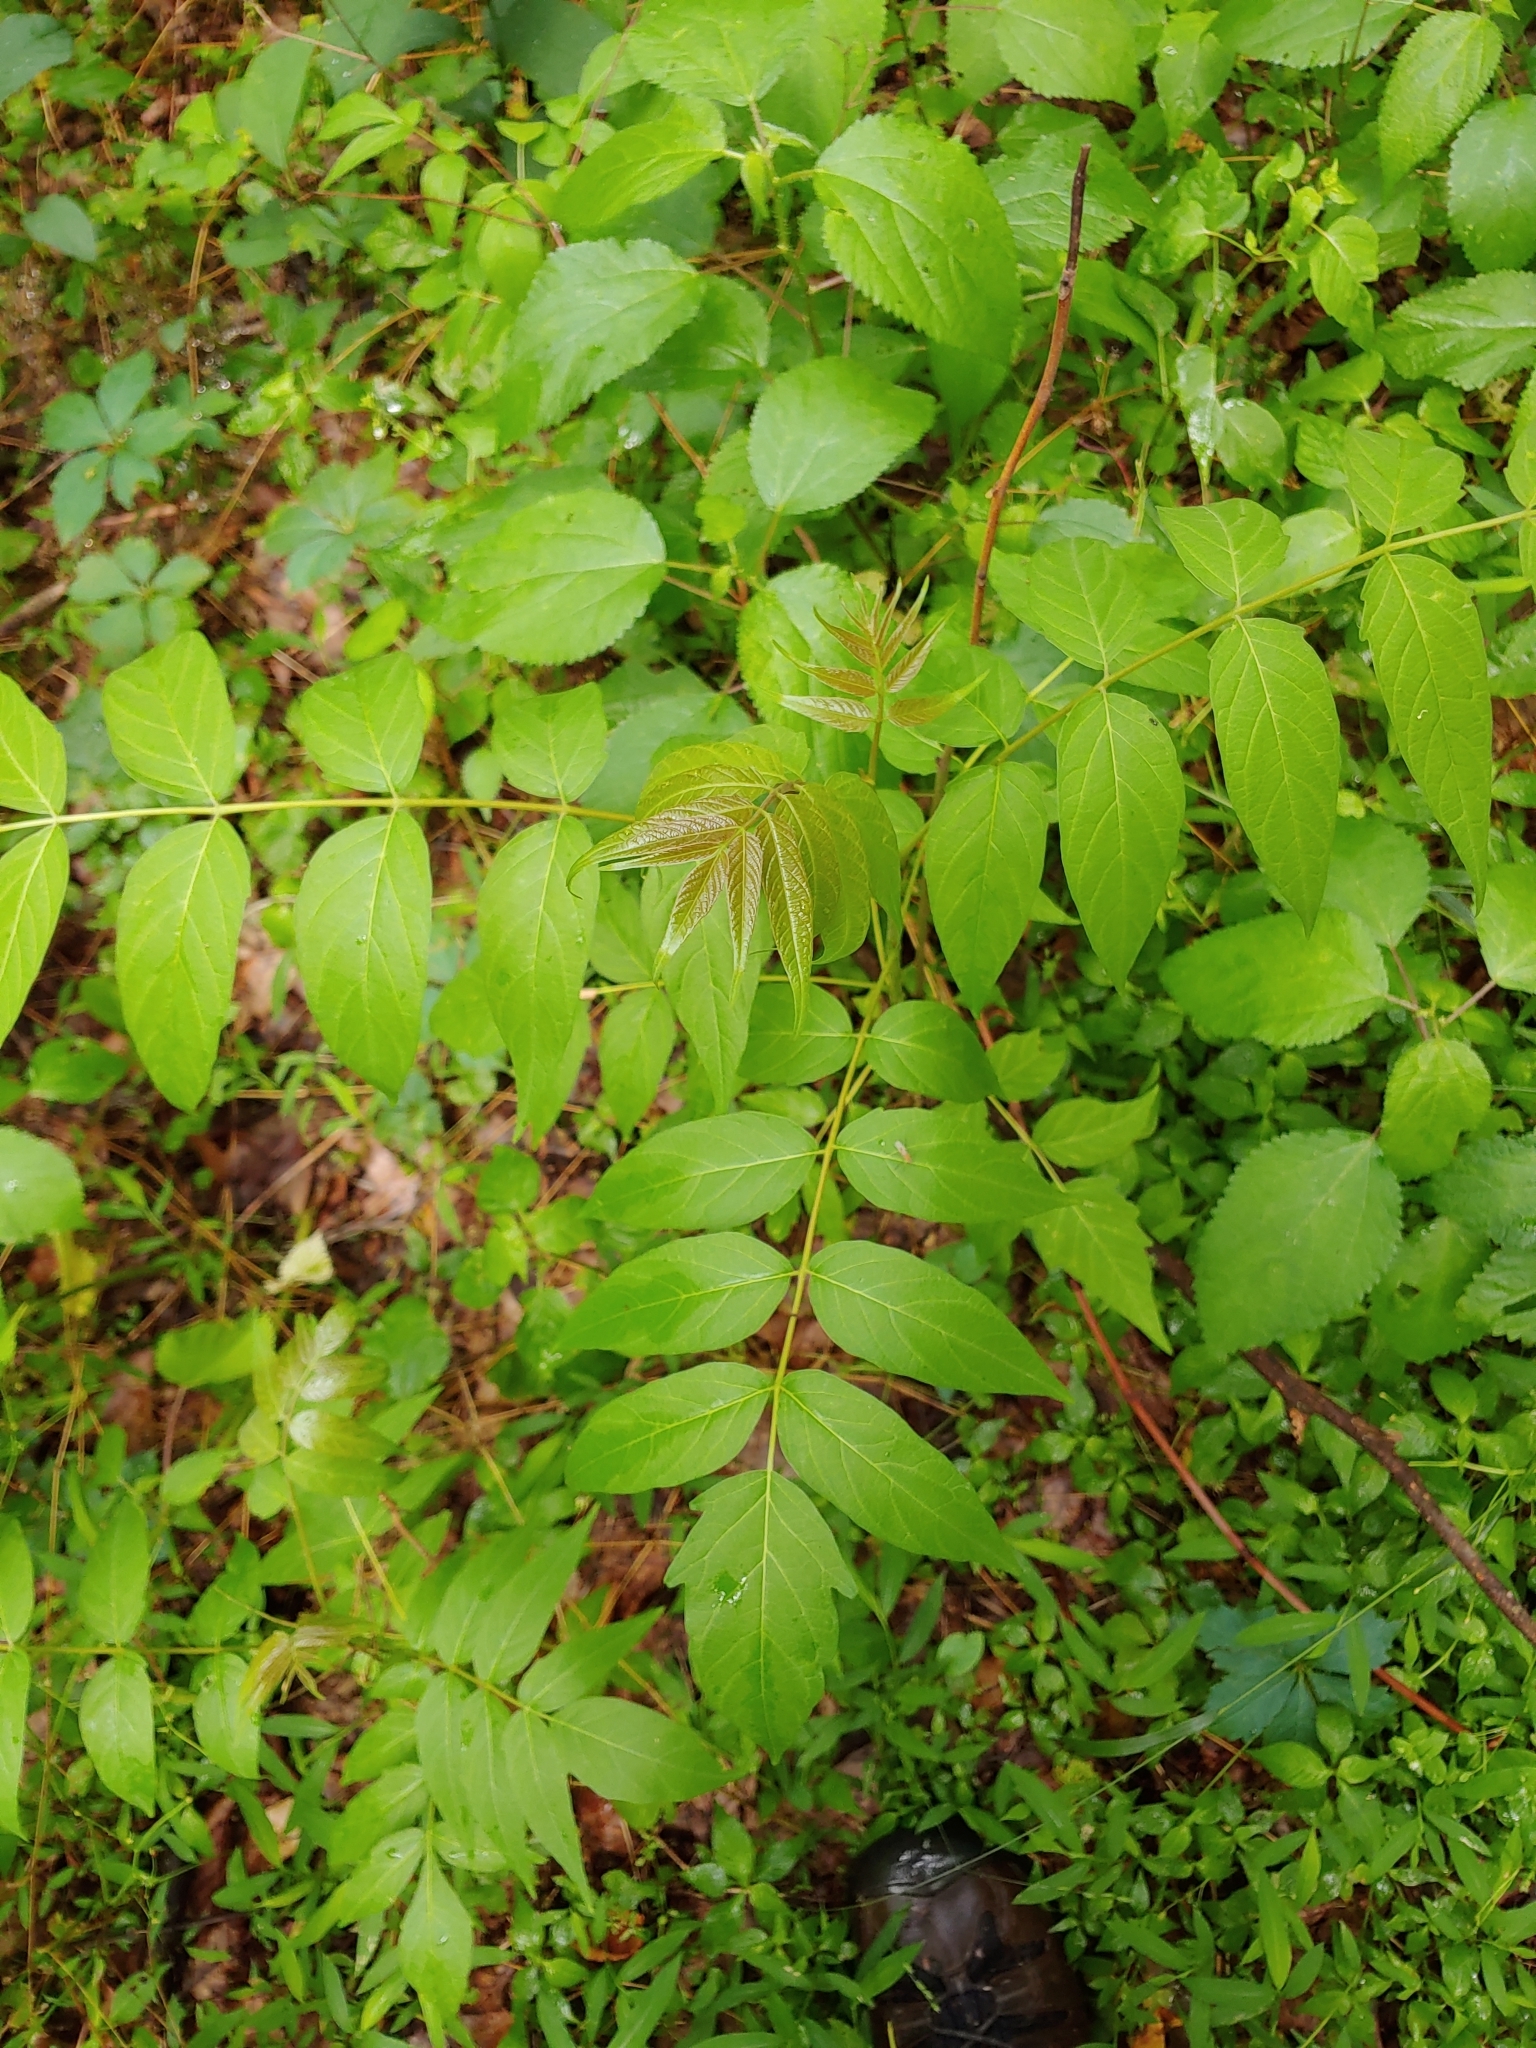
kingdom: Plantae
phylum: Tracheophyta
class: Magnoliopsida
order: Sapindales
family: Simaroubaceae
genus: Ailanthus
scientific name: Ailanthus altissima
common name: Tree-of-heaven
